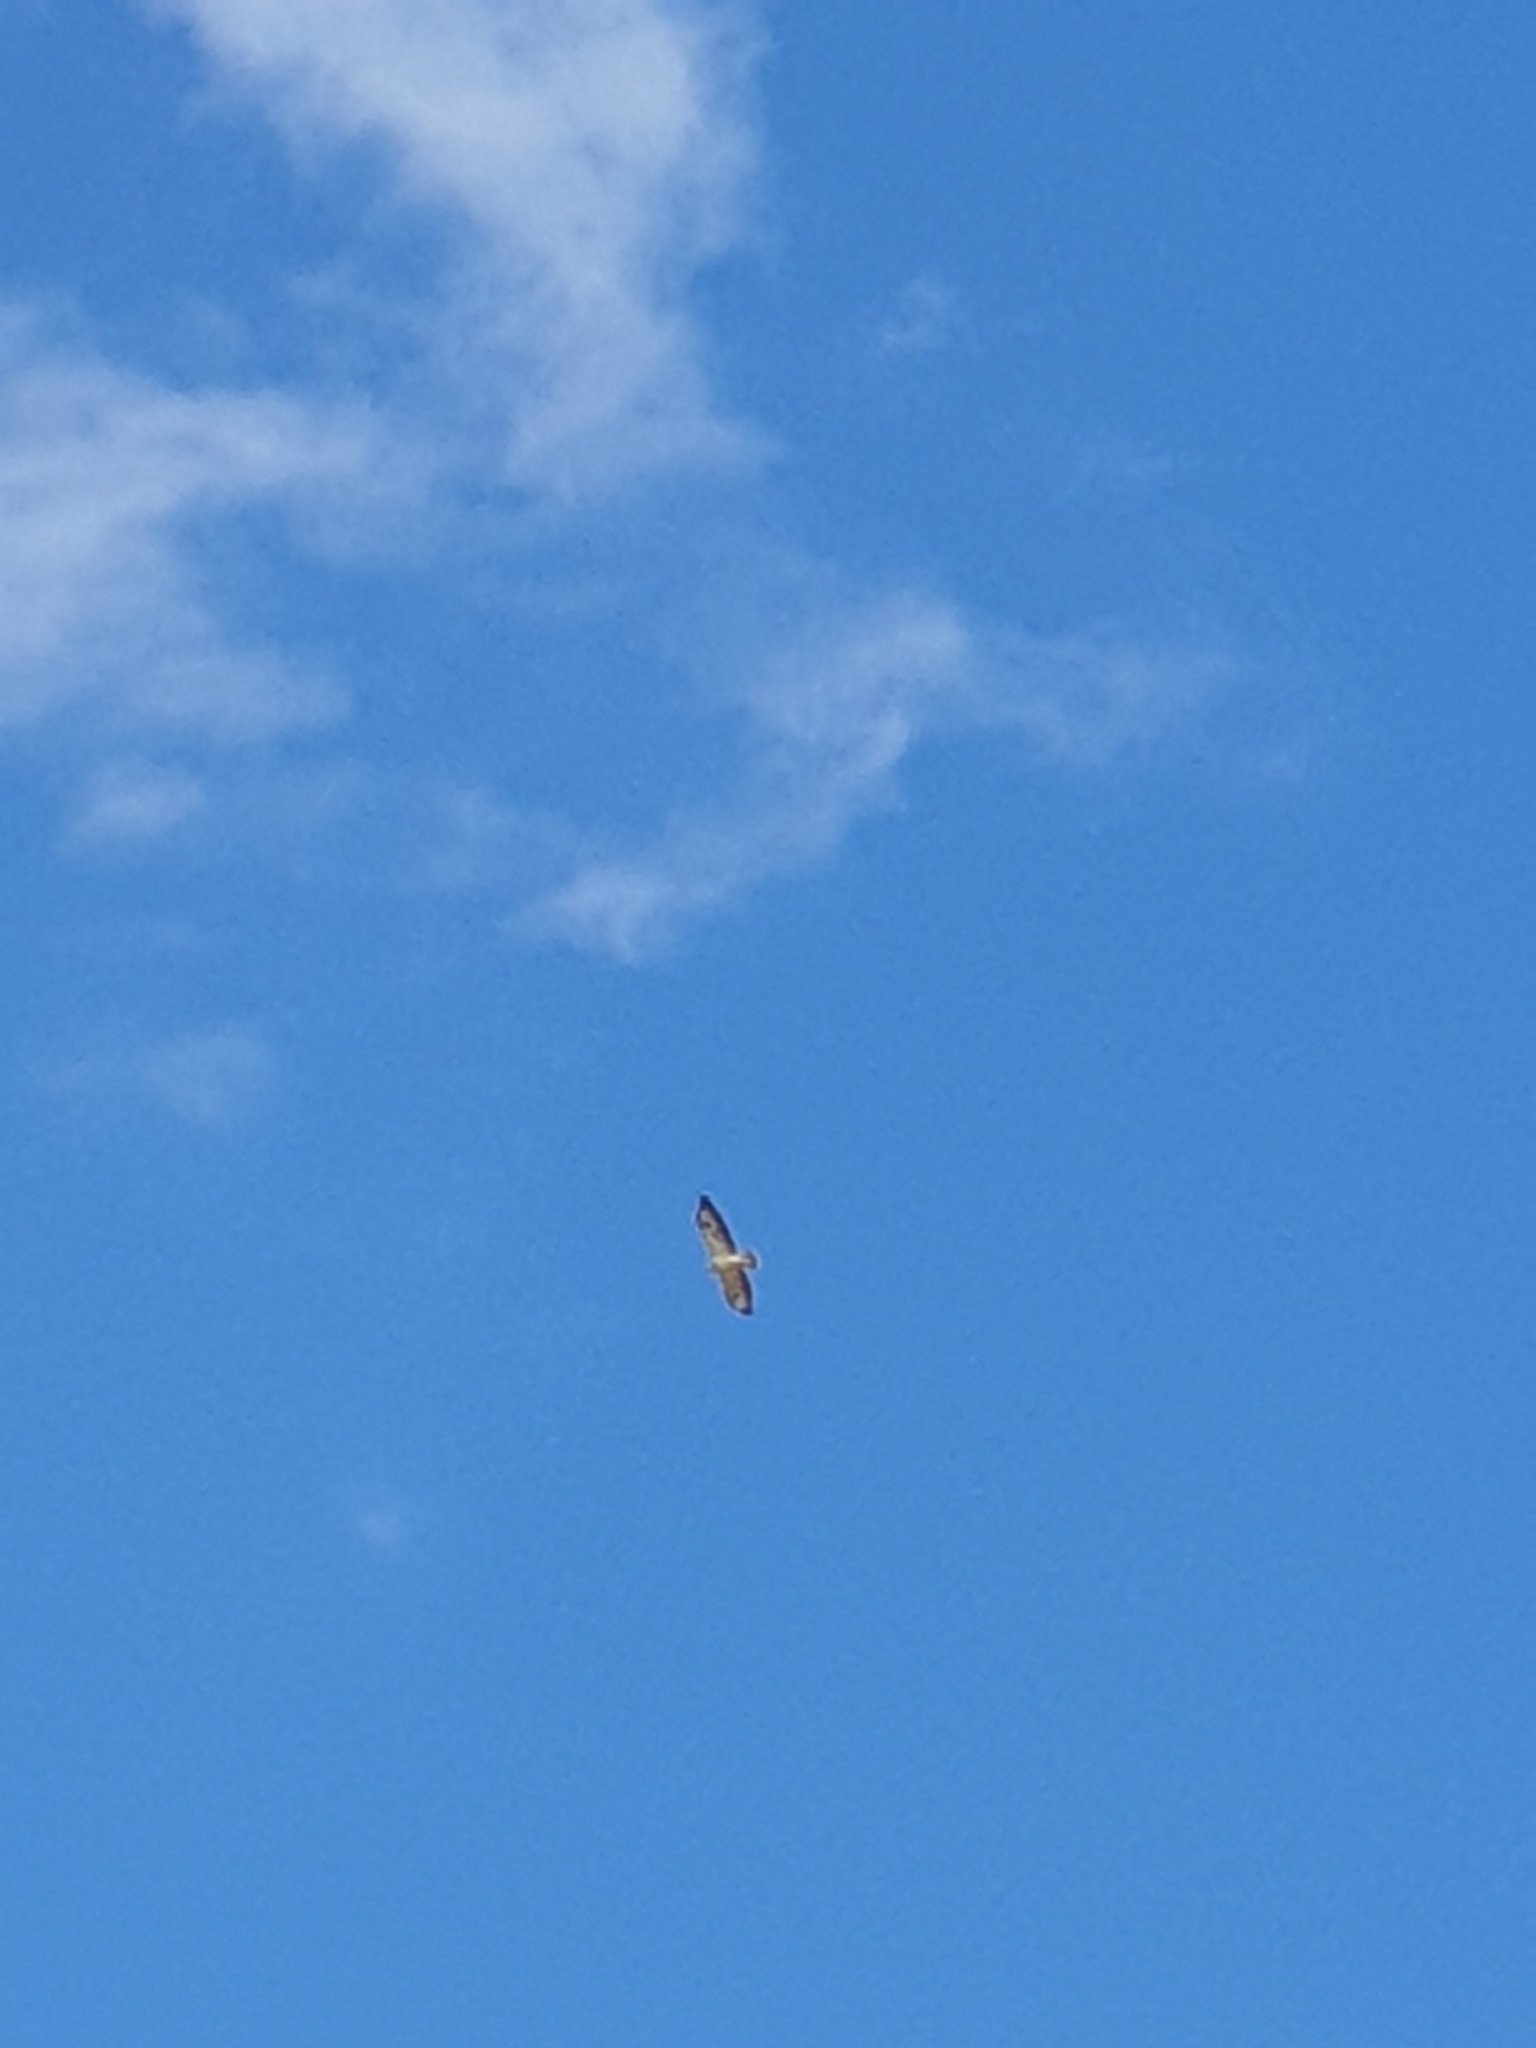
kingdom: Animalia
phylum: Chordata
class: Aves
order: Accipitriformes
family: Accipitridae
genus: Buteo
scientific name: Buteo buteo
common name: Common buzzard
